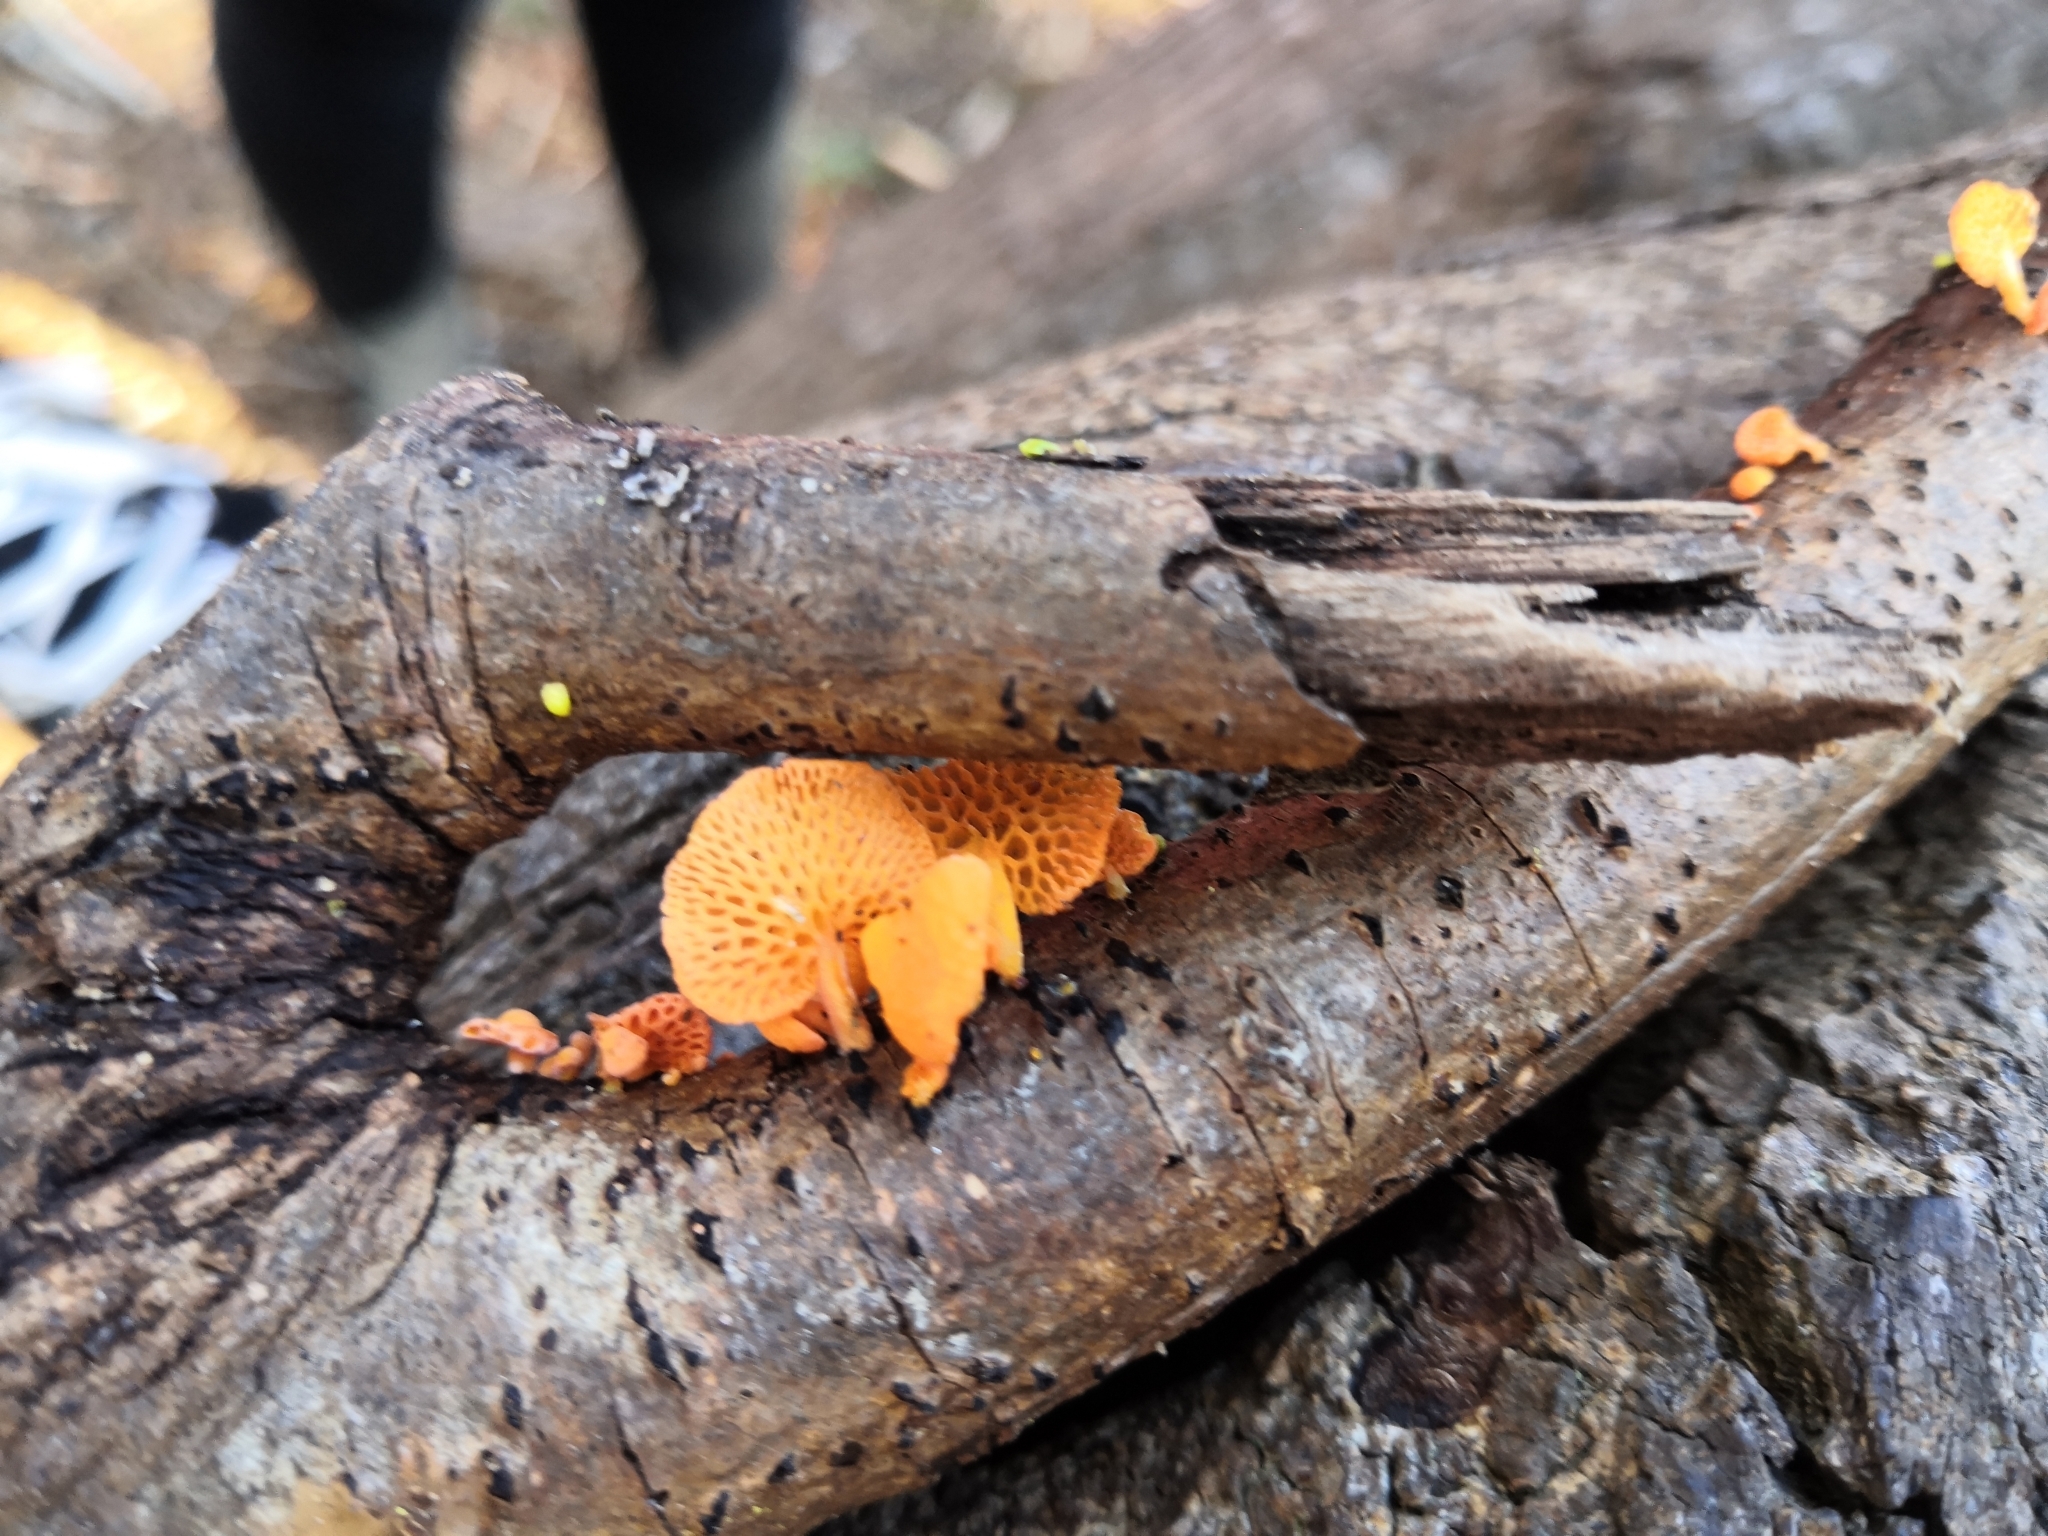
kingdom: Fungi
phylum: Basidiomycota
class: Agaricomycetes
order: Agaricales
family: Mycenaceae
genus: Favolaschia
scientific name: Favolaschia claudopus
